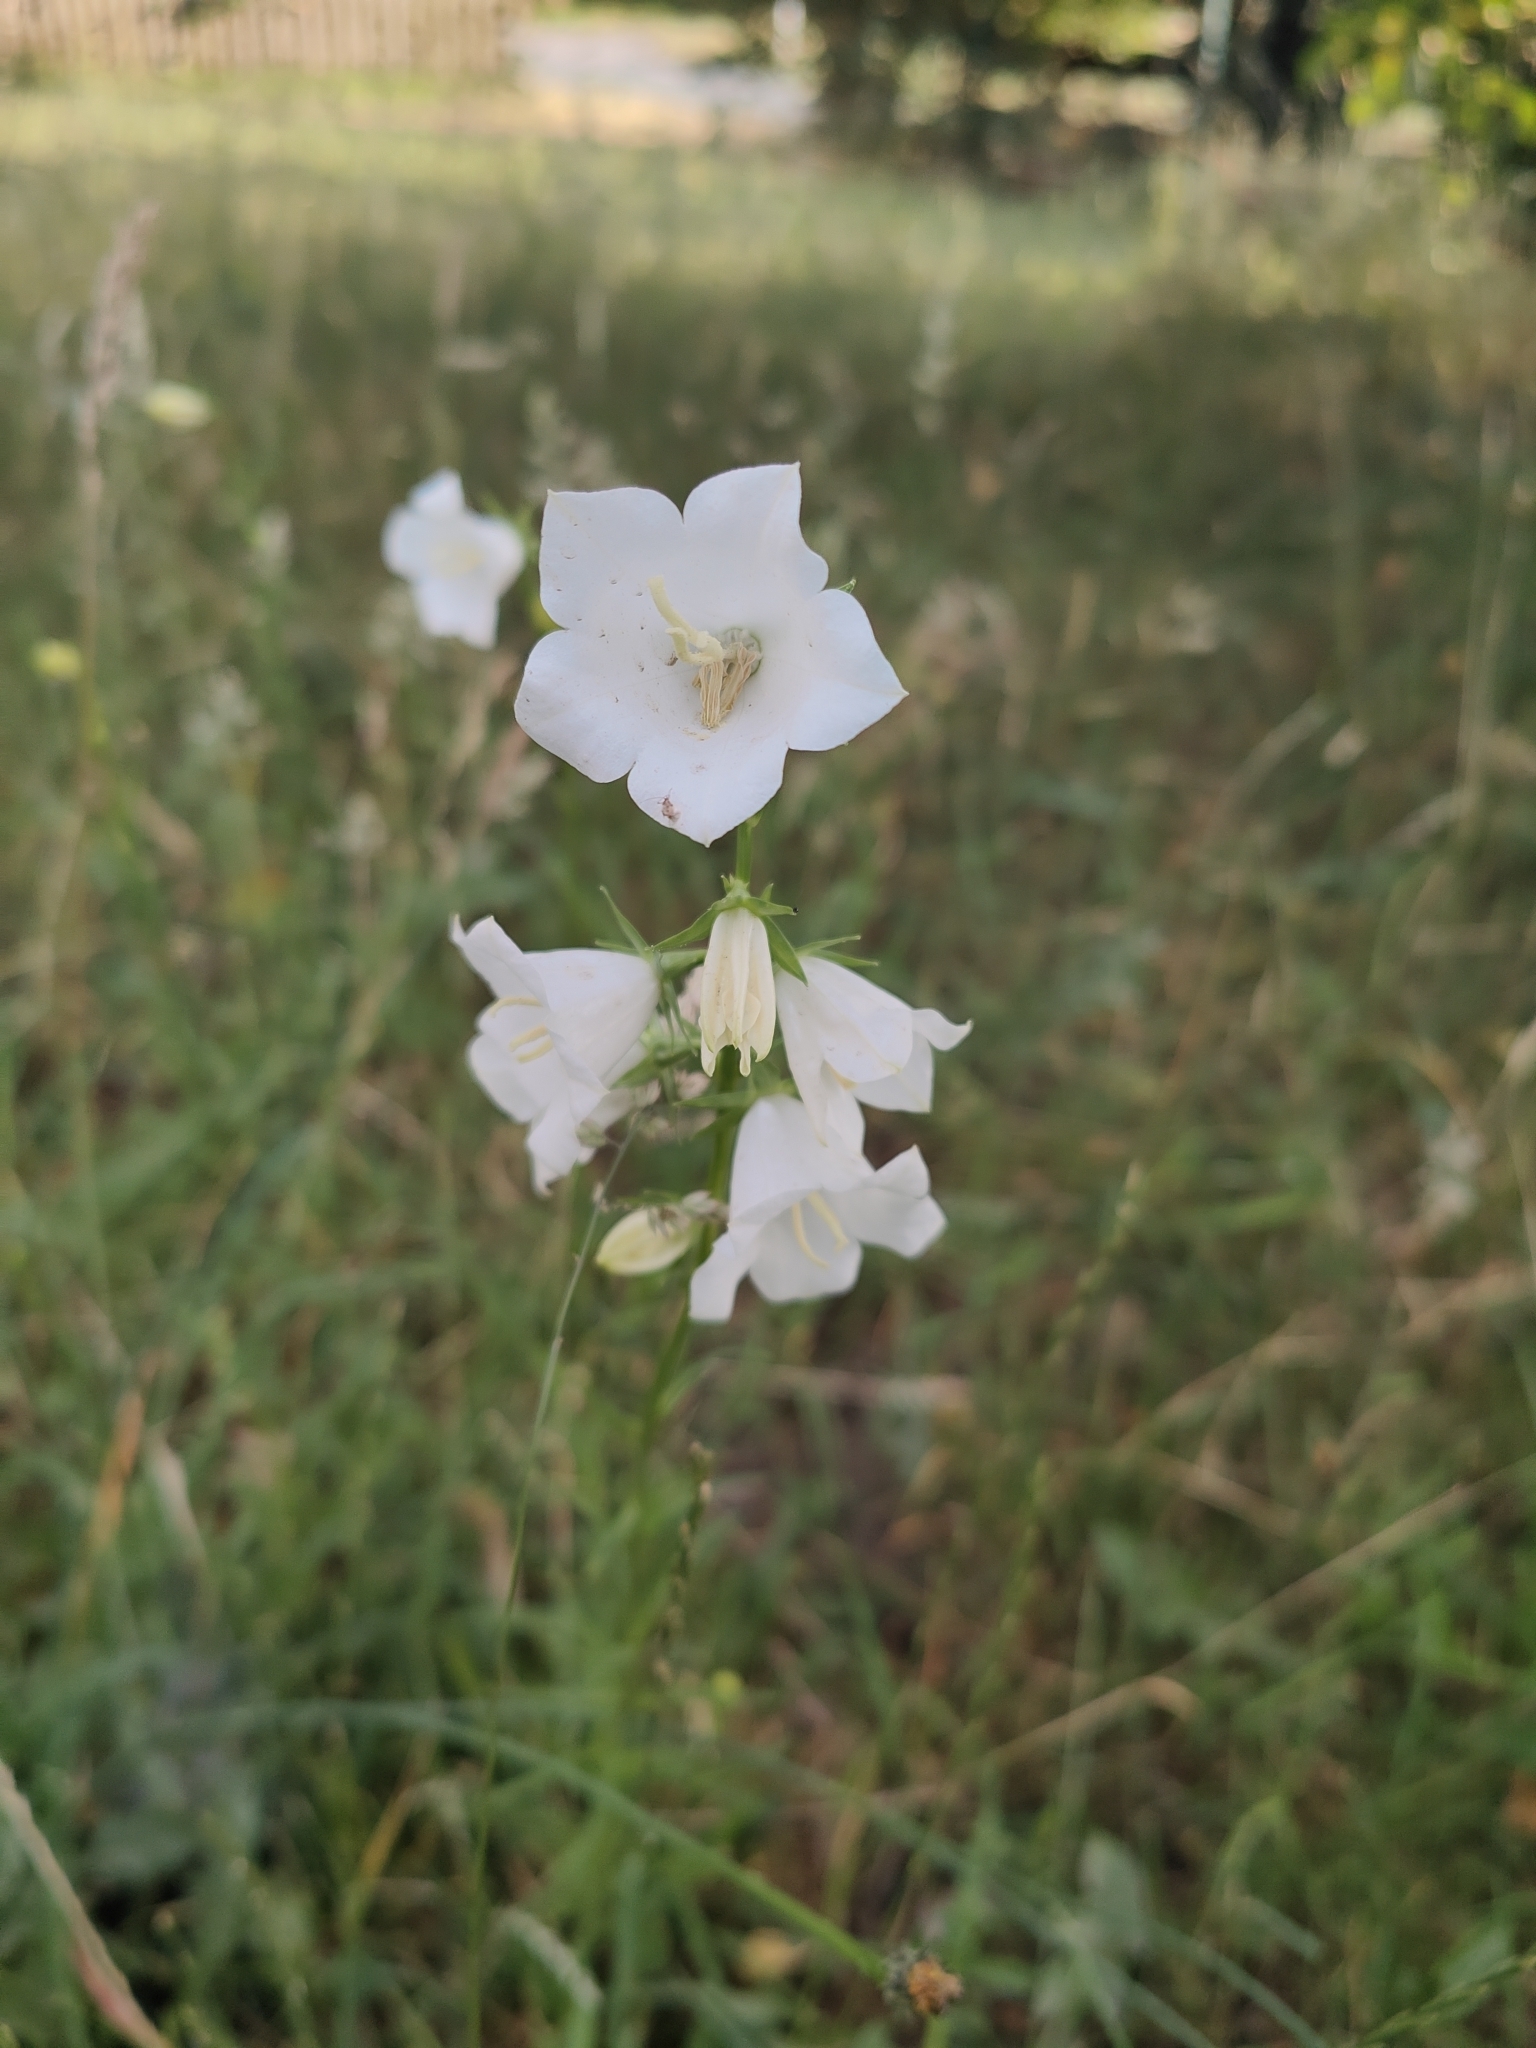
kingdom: Plantae
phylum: Tracheophyta
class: Magnoliopsida
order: Asterales
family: Campanulaceae
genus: Campanula
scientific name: Campanula persicifolia
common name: Peach-leaved bellflower
